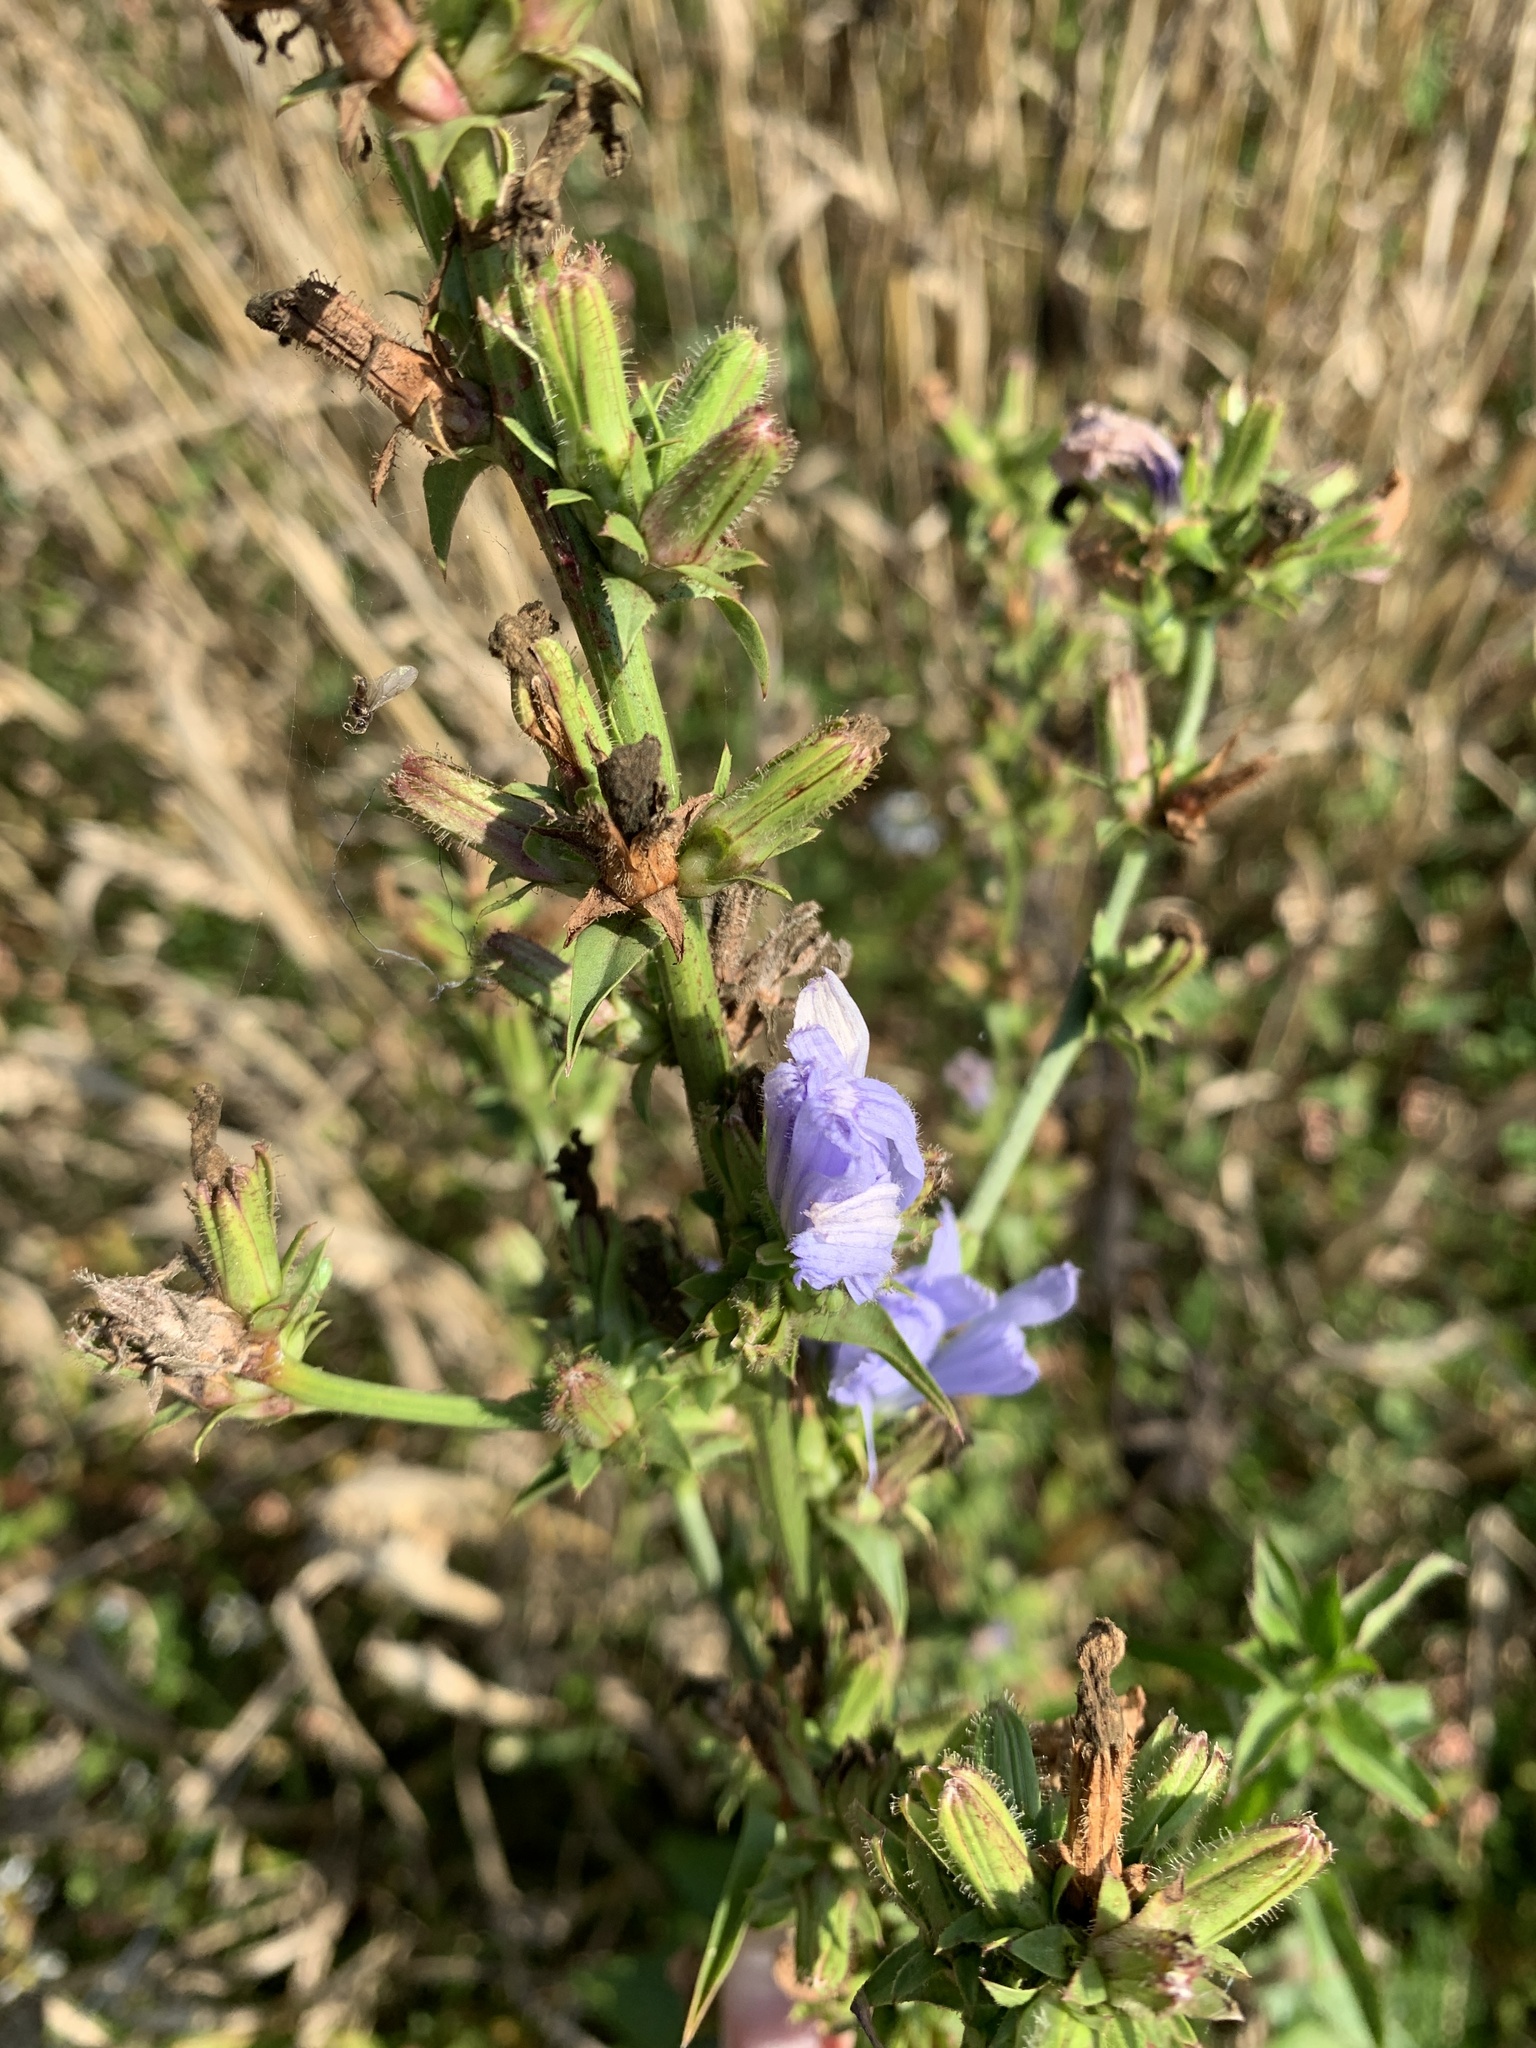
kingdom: Plantae
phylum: Tracheophyta
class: Magnoliopsida
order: Asterales
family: Asteraceae
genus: Cichorium
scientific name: Cichorium intybus
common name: Chicory
